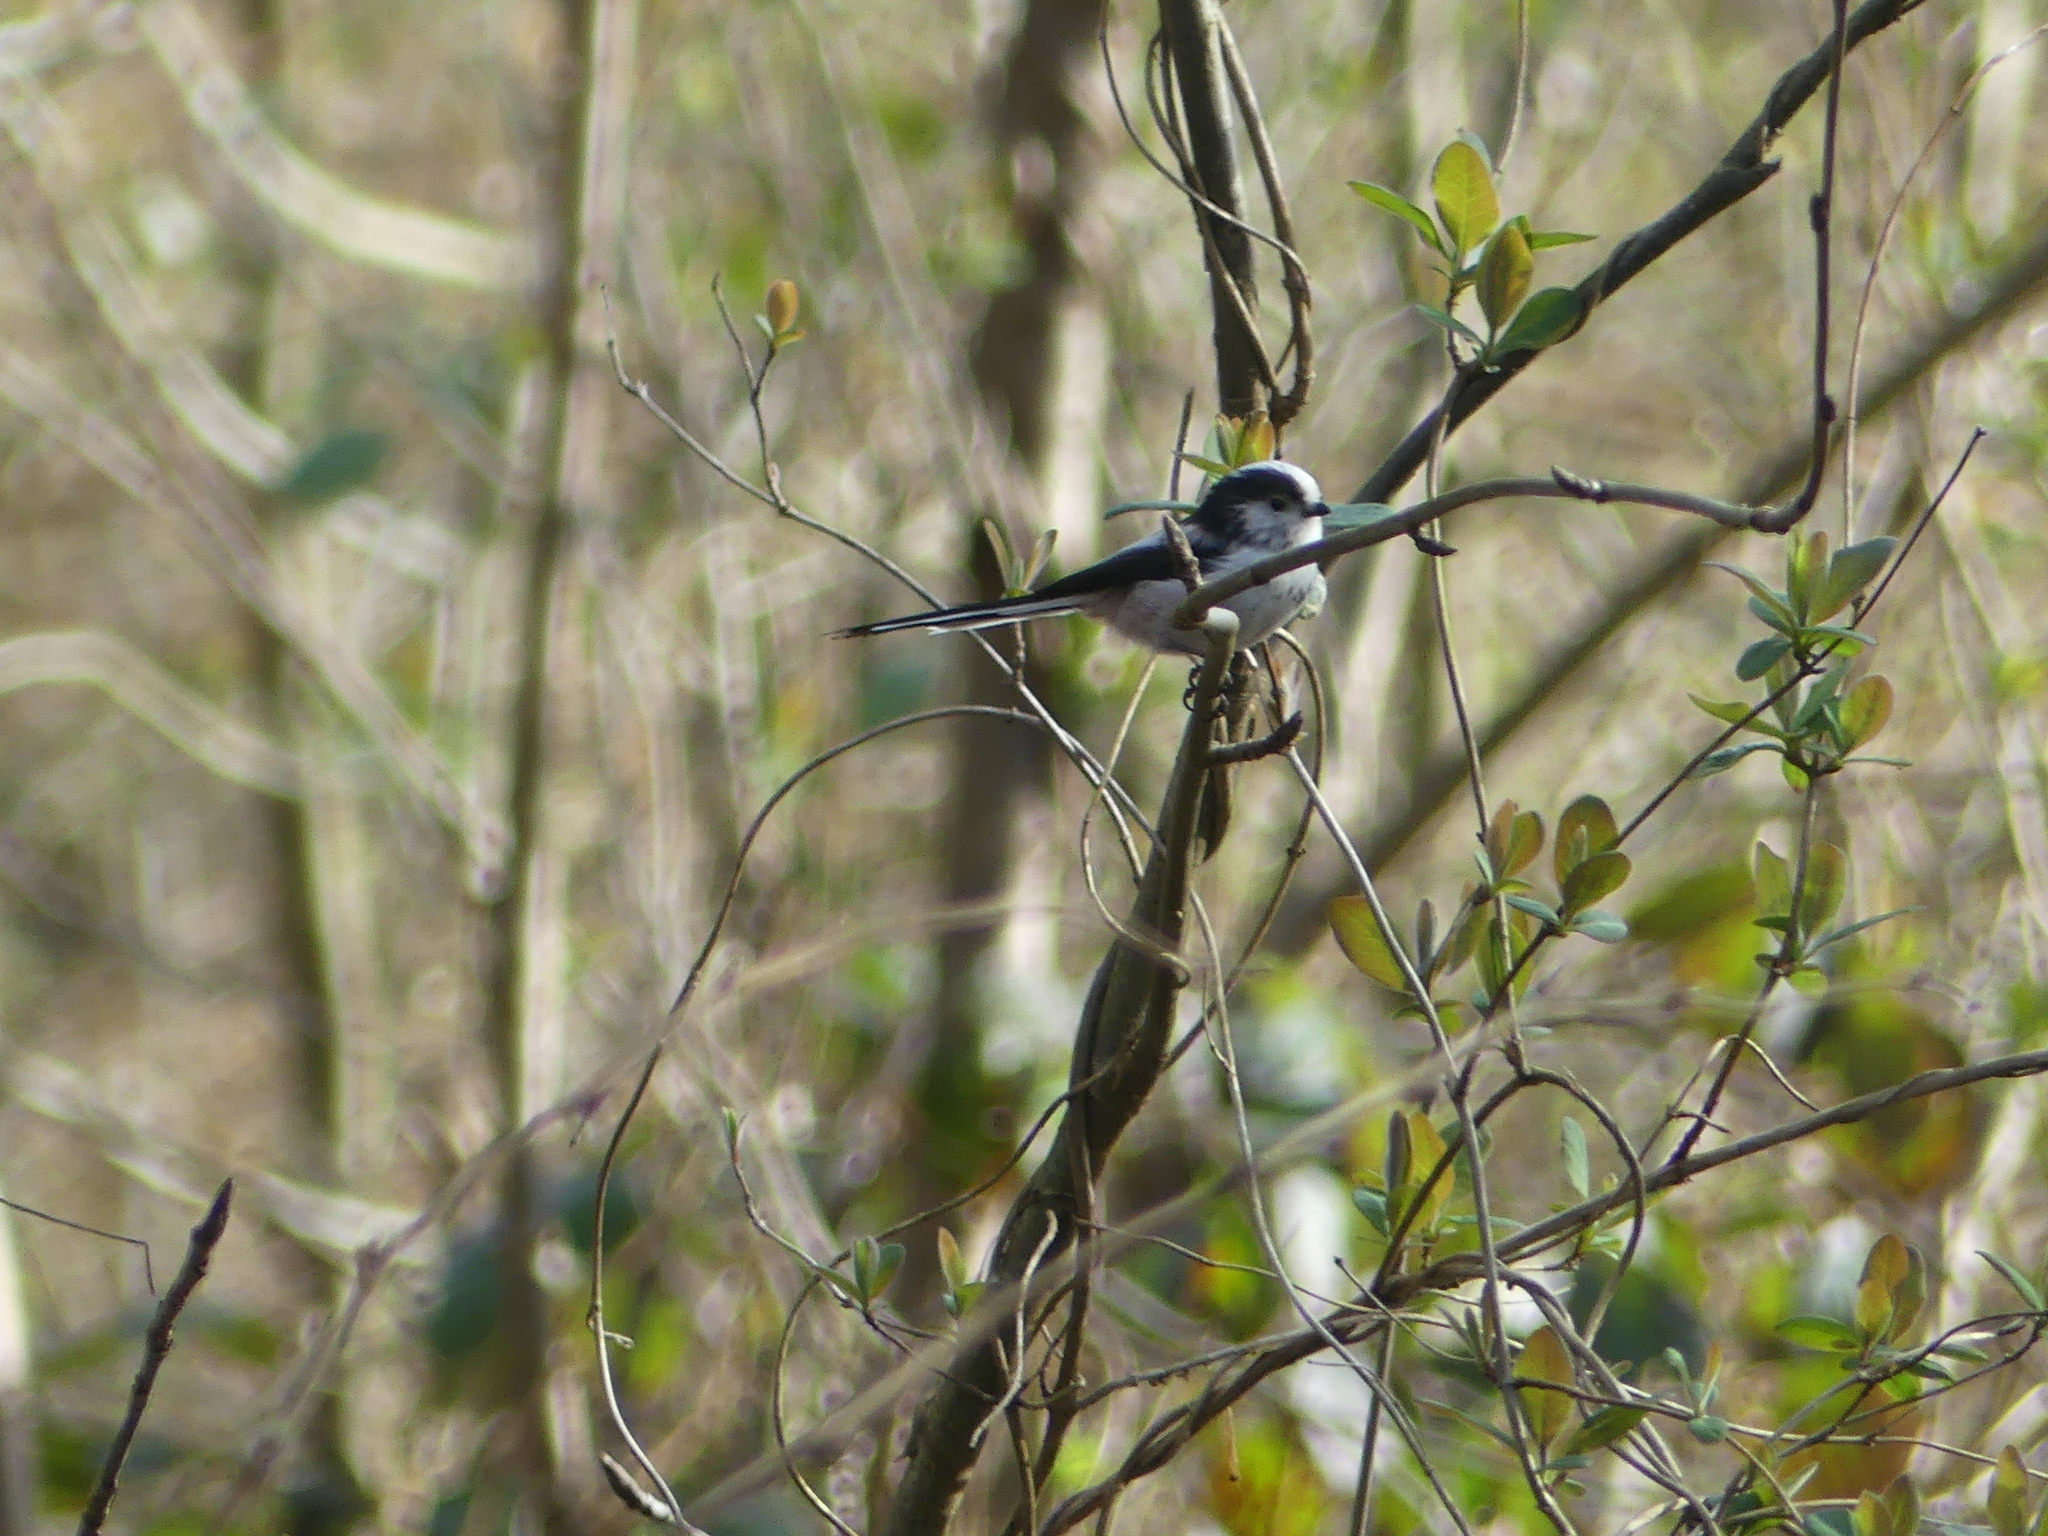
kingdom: Animalia
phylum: Chordata
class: Aves
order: Passeriformes
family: Aegithalidae
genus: Aegithalos
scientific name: Aegithalos caudatus
